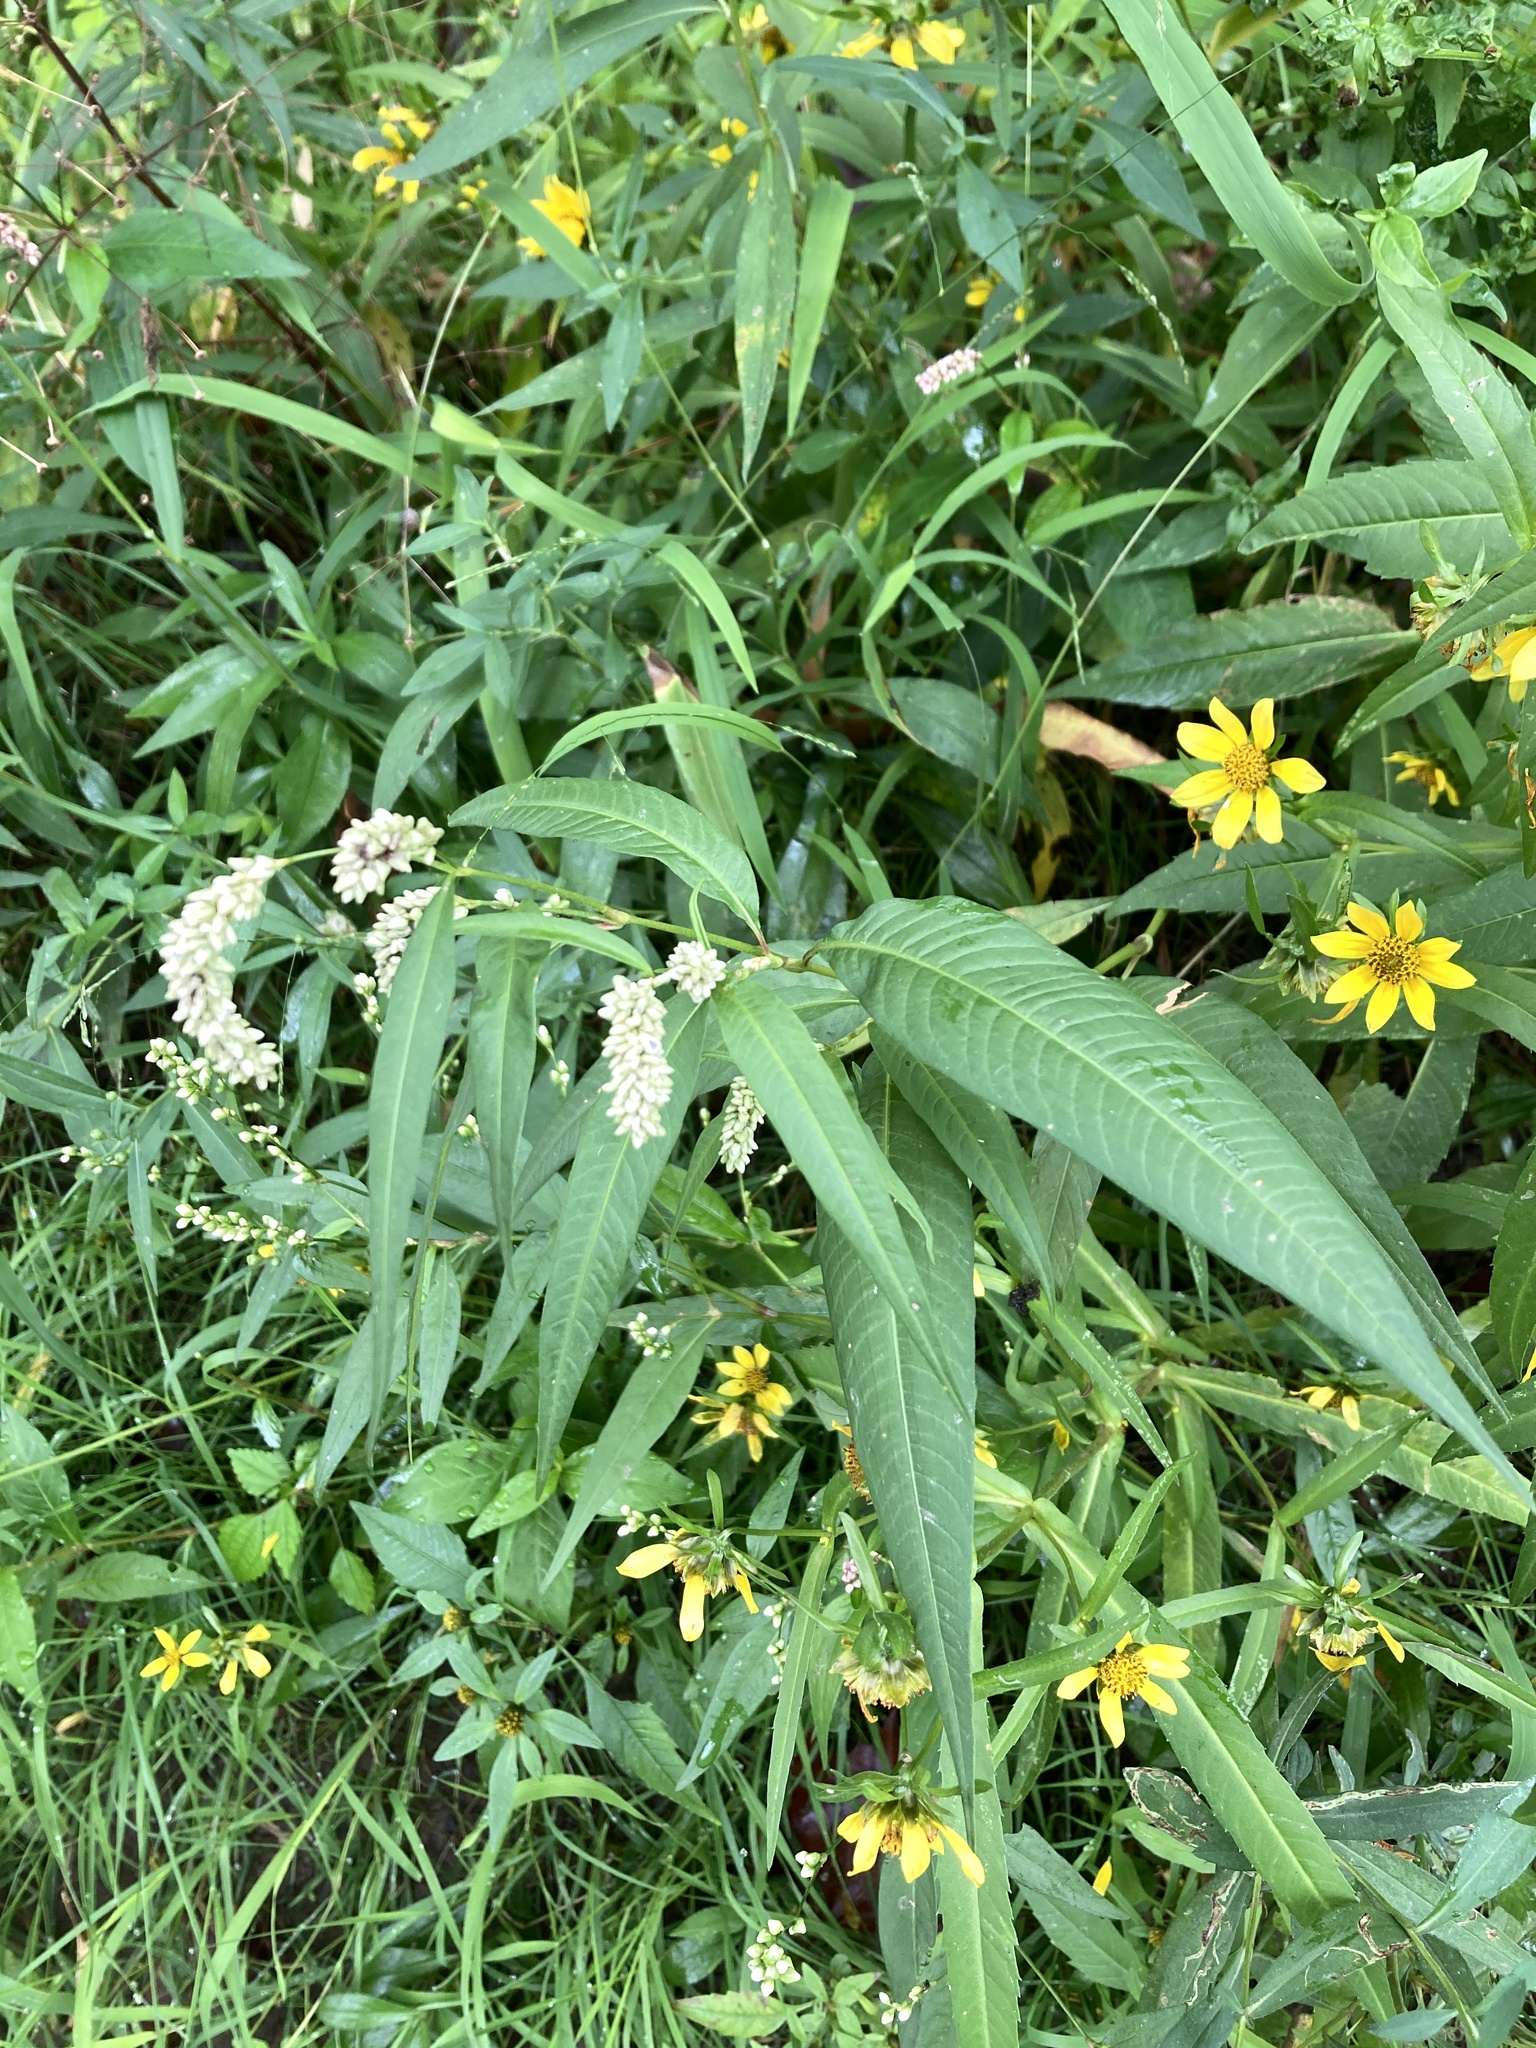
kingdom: Plantae
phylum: Tracheophyta
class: Magnoliopsida
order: Caryophyllales
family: Polygonaceae
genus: Persicaria
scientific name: Persicaria lapathifolia
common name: Curlytop knotweed
